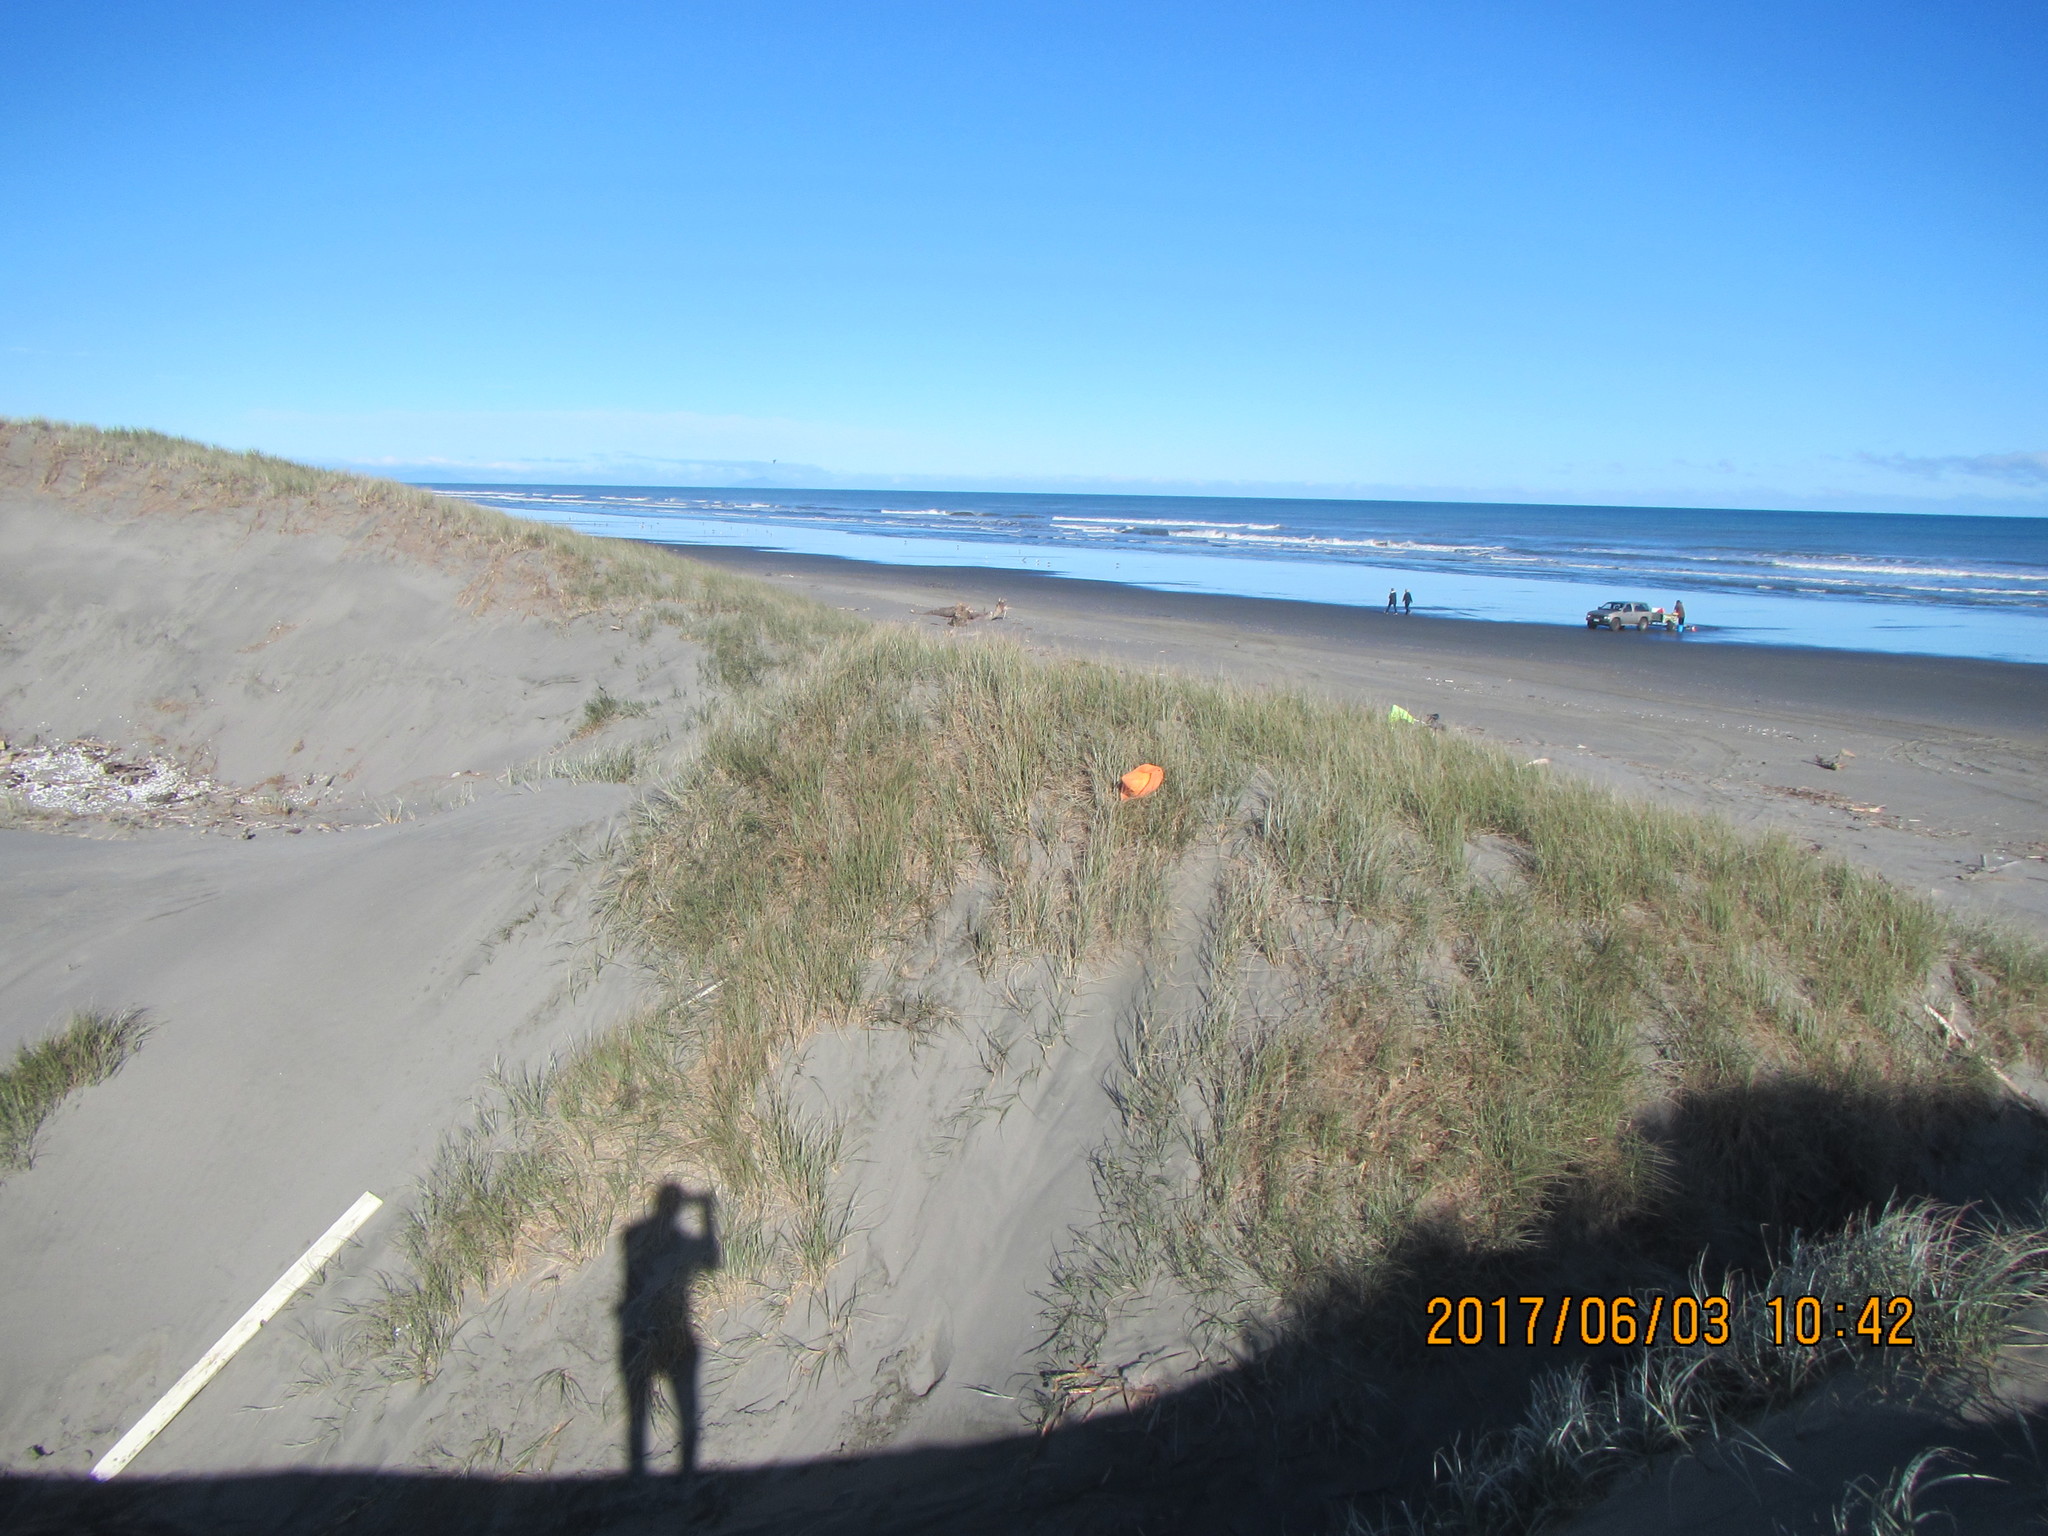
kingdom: Animalia
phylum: Arthropoda
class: Arachnida
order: Araneae
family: Theridiidae
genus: Latrodectus
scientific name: Latrodectus katipo
